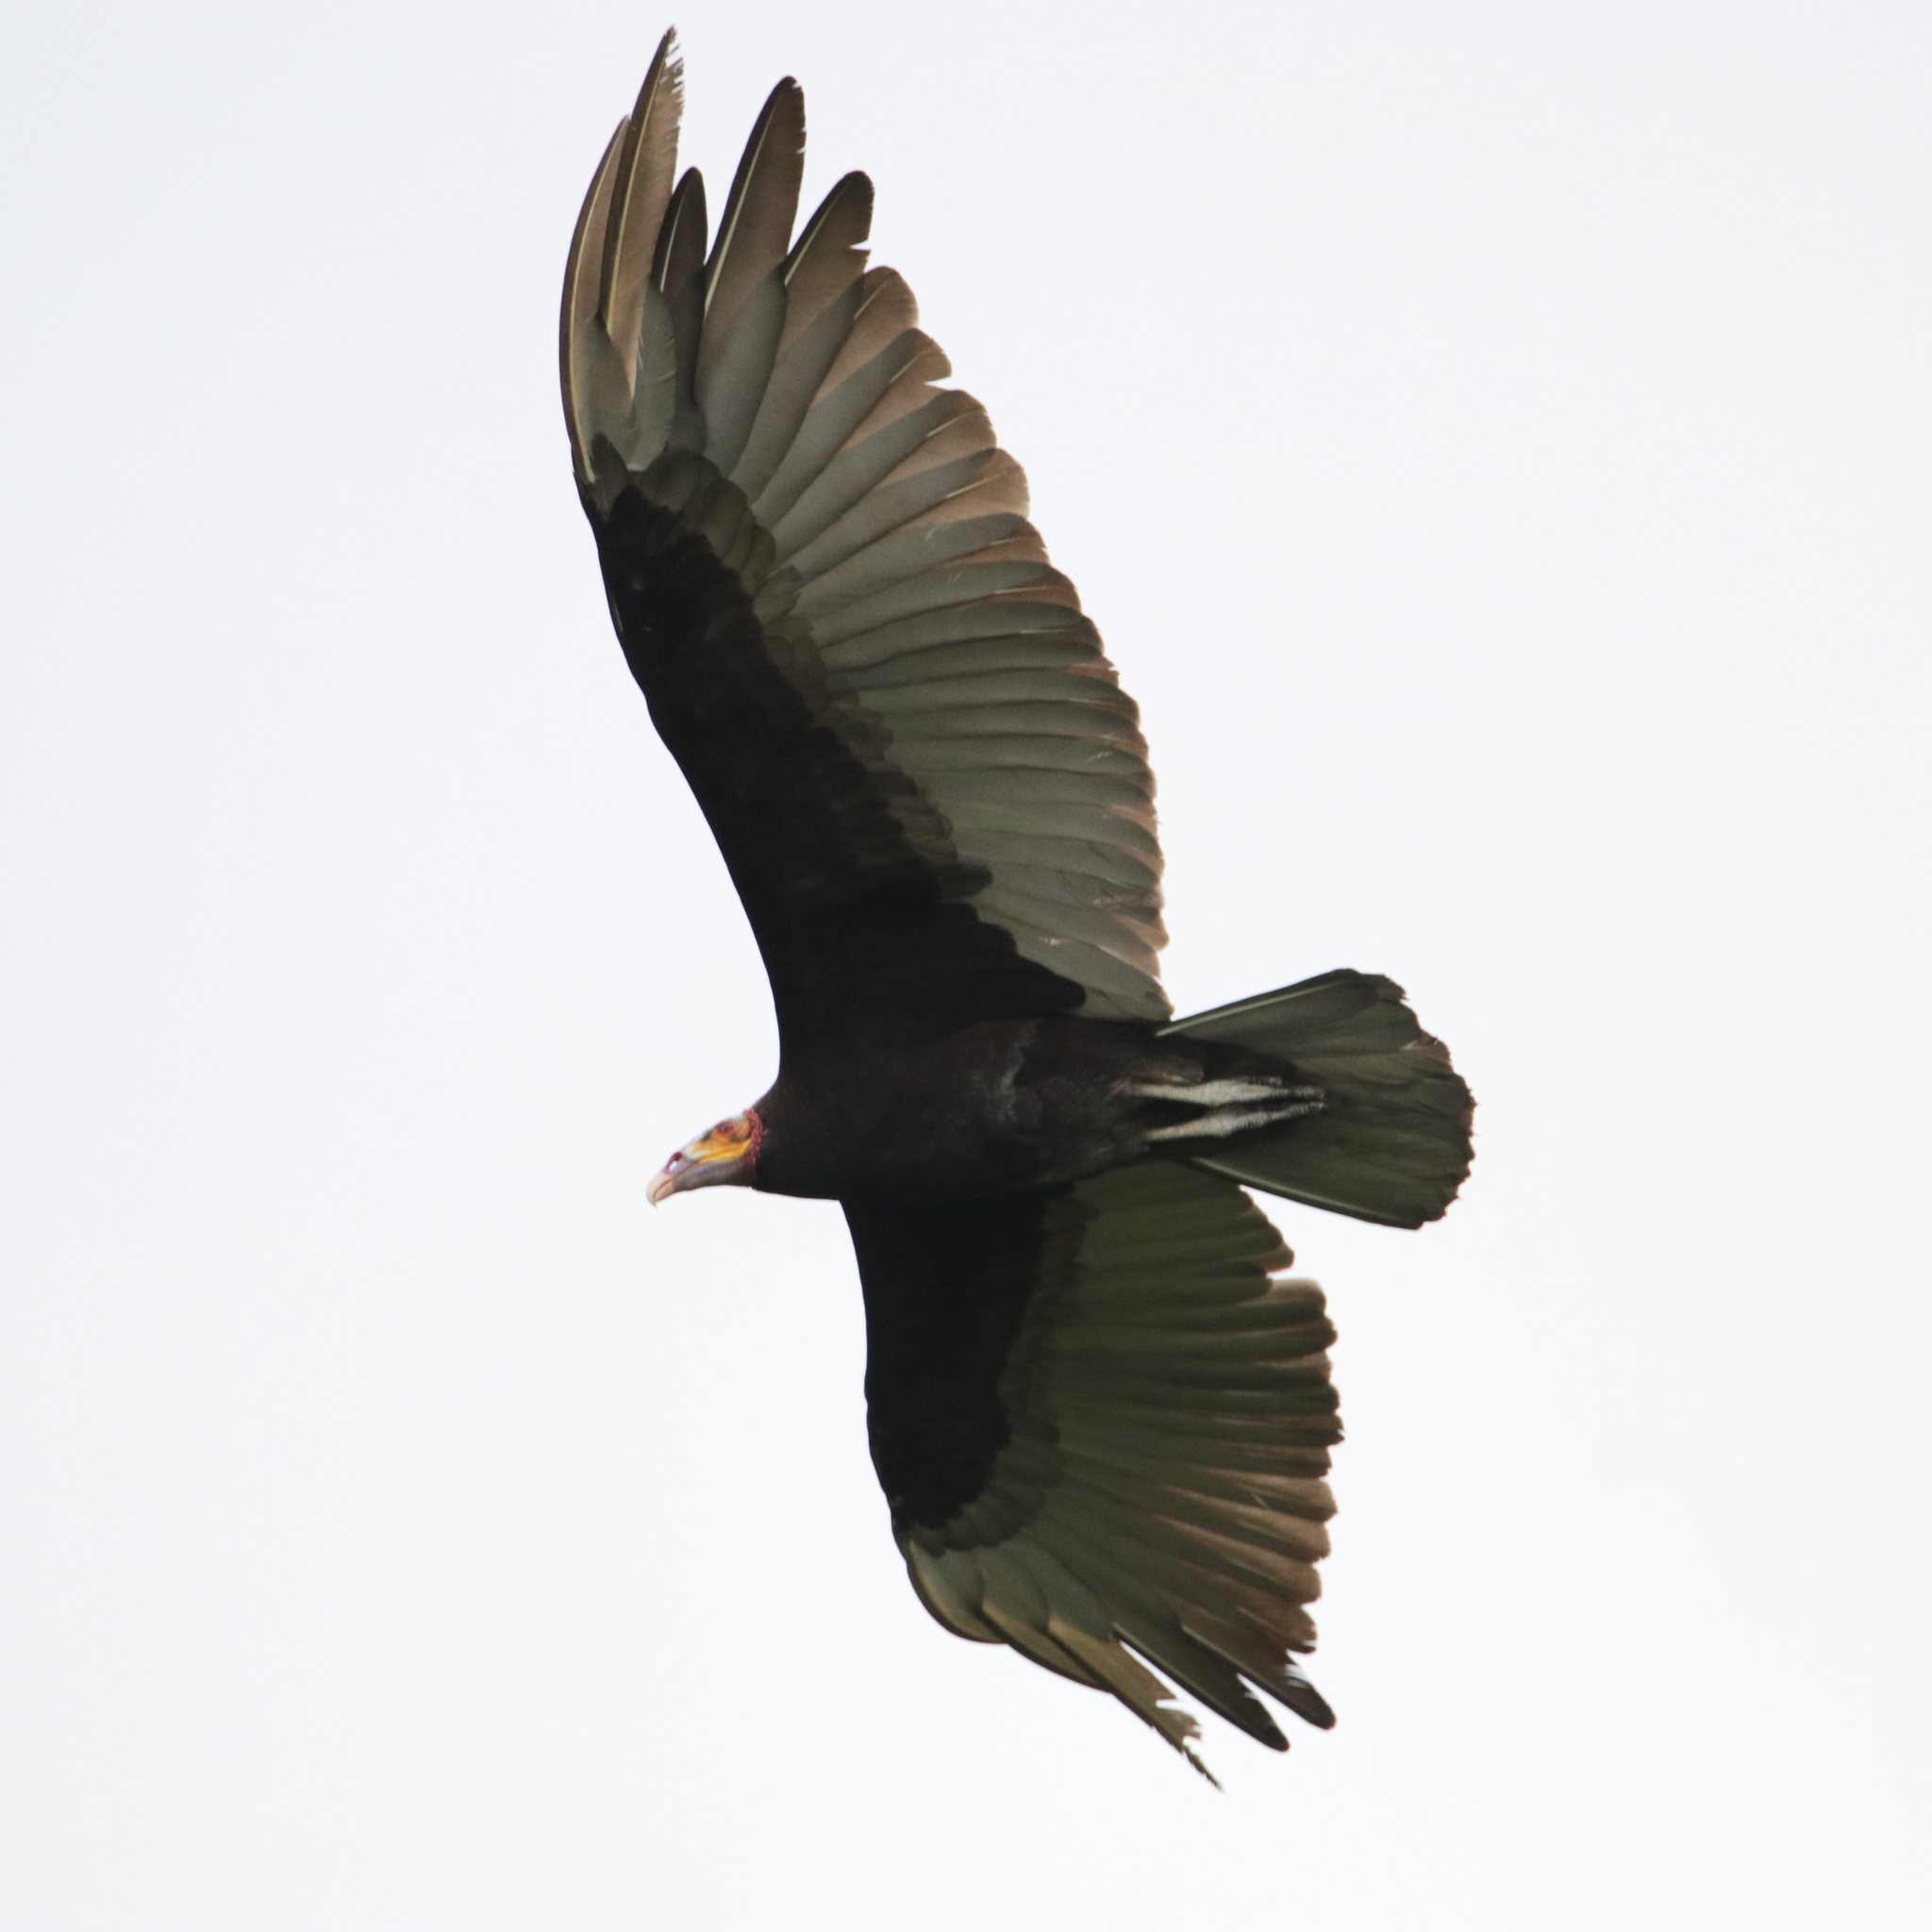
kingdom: Animalia
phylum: Chordata
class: Aves
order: Accipitriformes
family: Cathartidae
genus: Cathartes
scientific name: Cathartes burrovianus
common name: Lesser yellow-headed vulture
